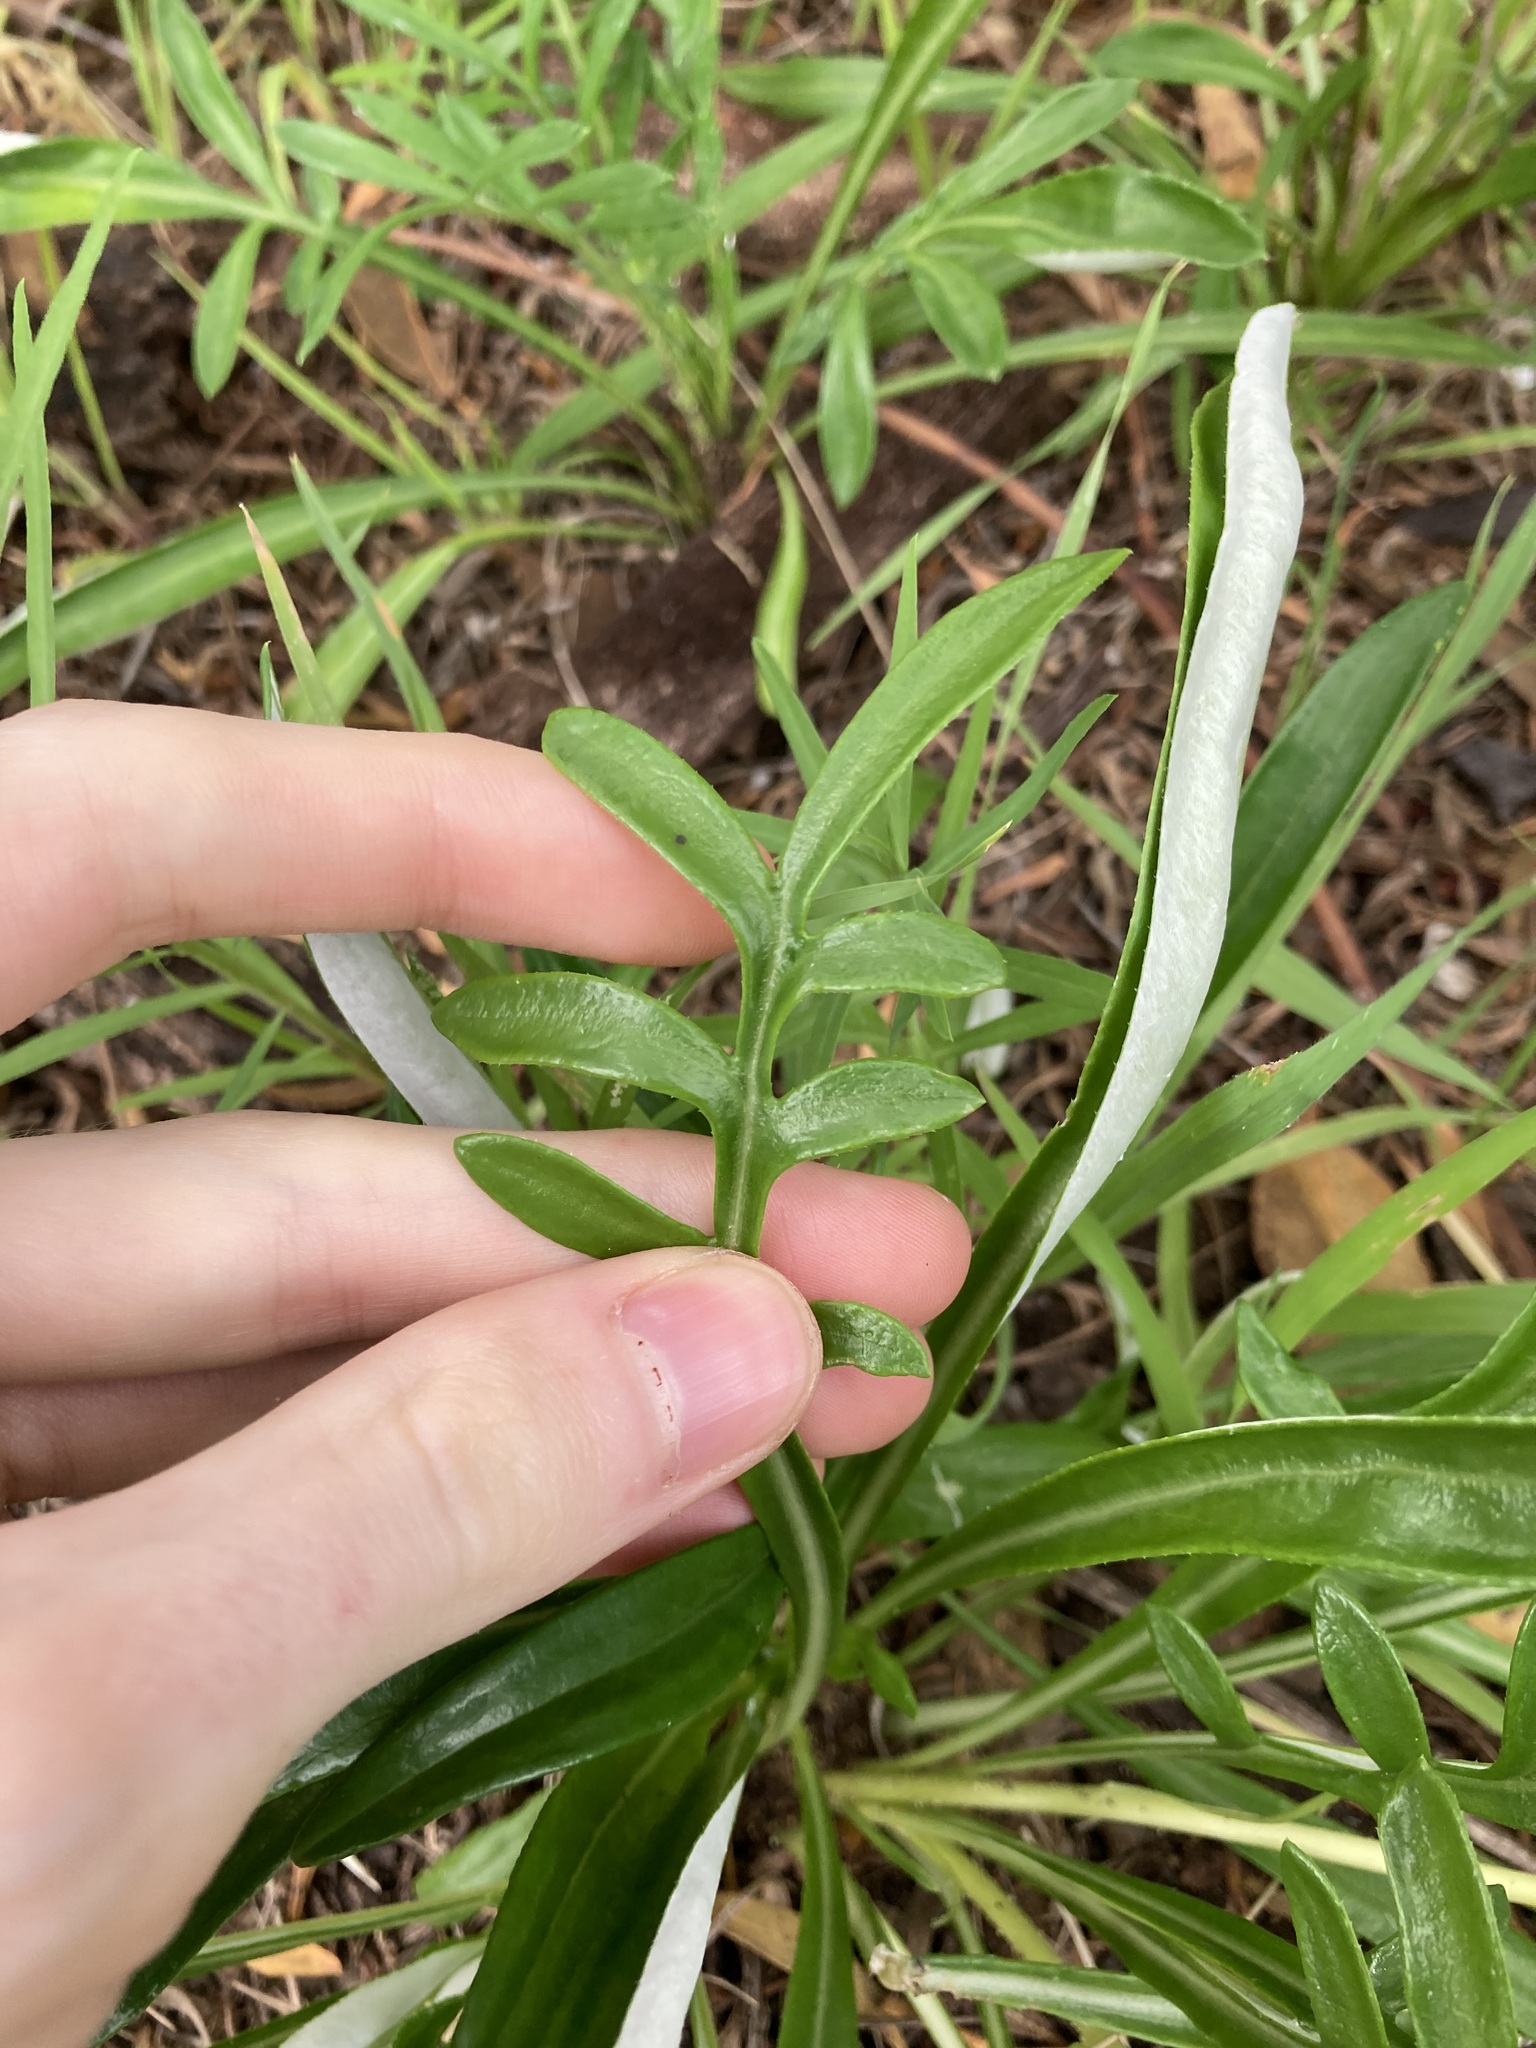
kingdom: Plantae
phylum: Tracheophyta
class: Magnoliopsida
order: Asterales
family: Asteraceae
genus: Gazania
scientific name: Gazania splendens
